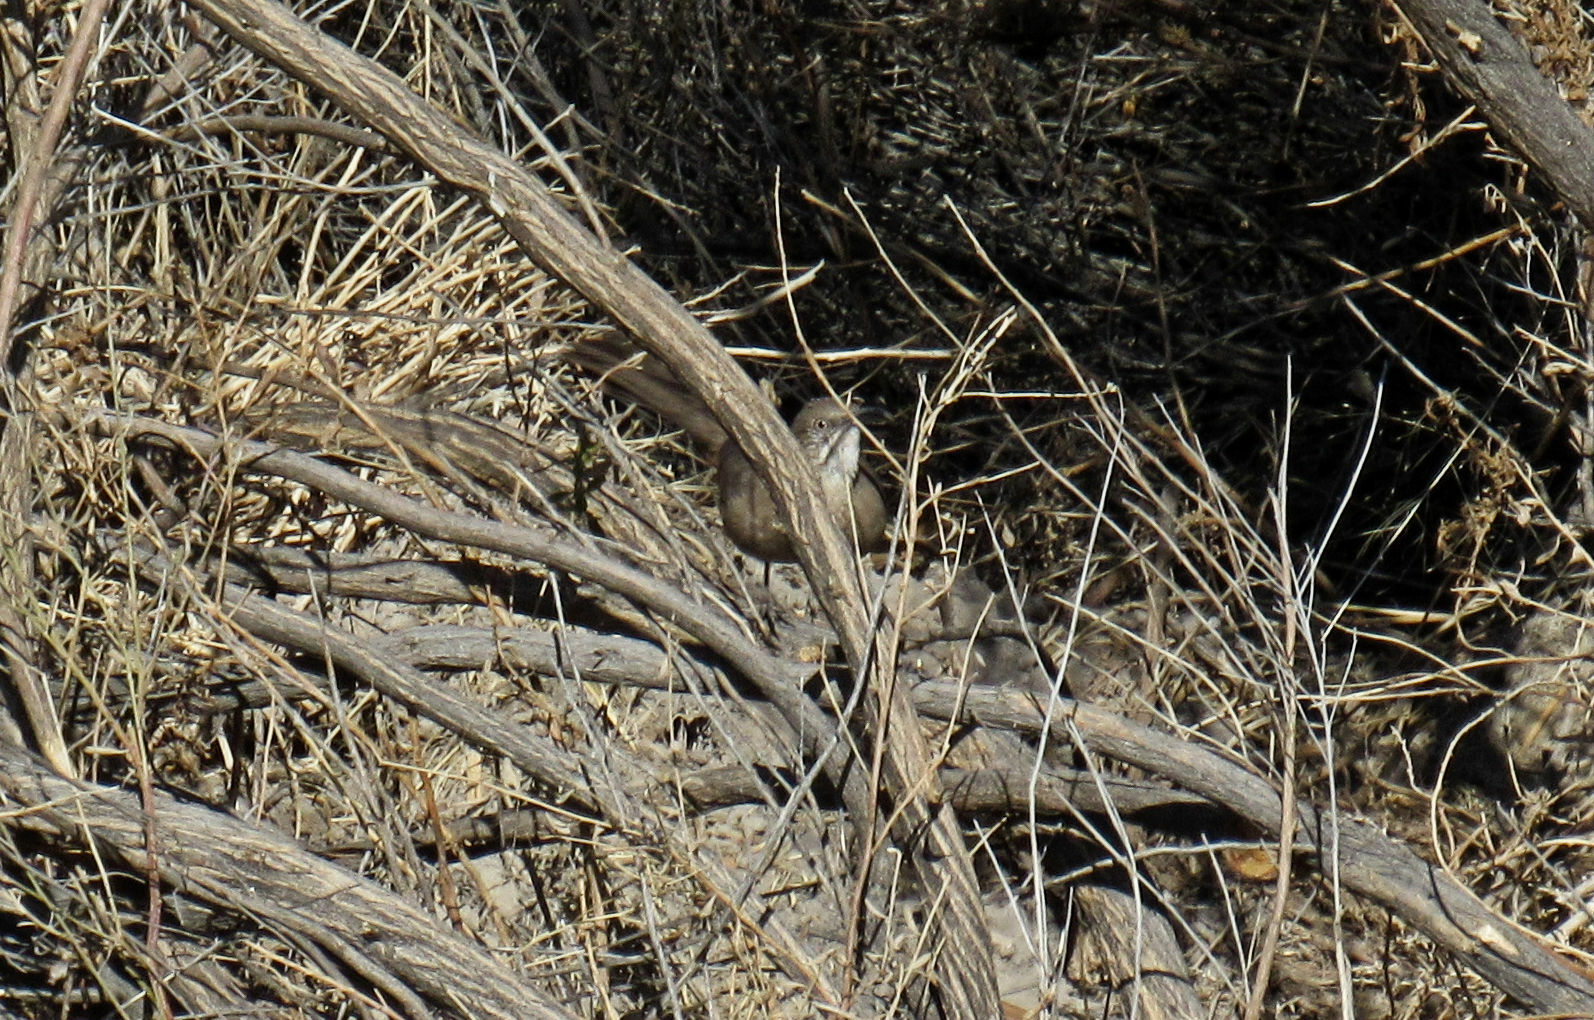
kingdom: Animalia
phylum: Chordata
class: Aves
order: Passeriformes
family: Mimidae
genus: Toxostoma
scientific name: Toxostoma crissale
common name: Crissal thrasher
